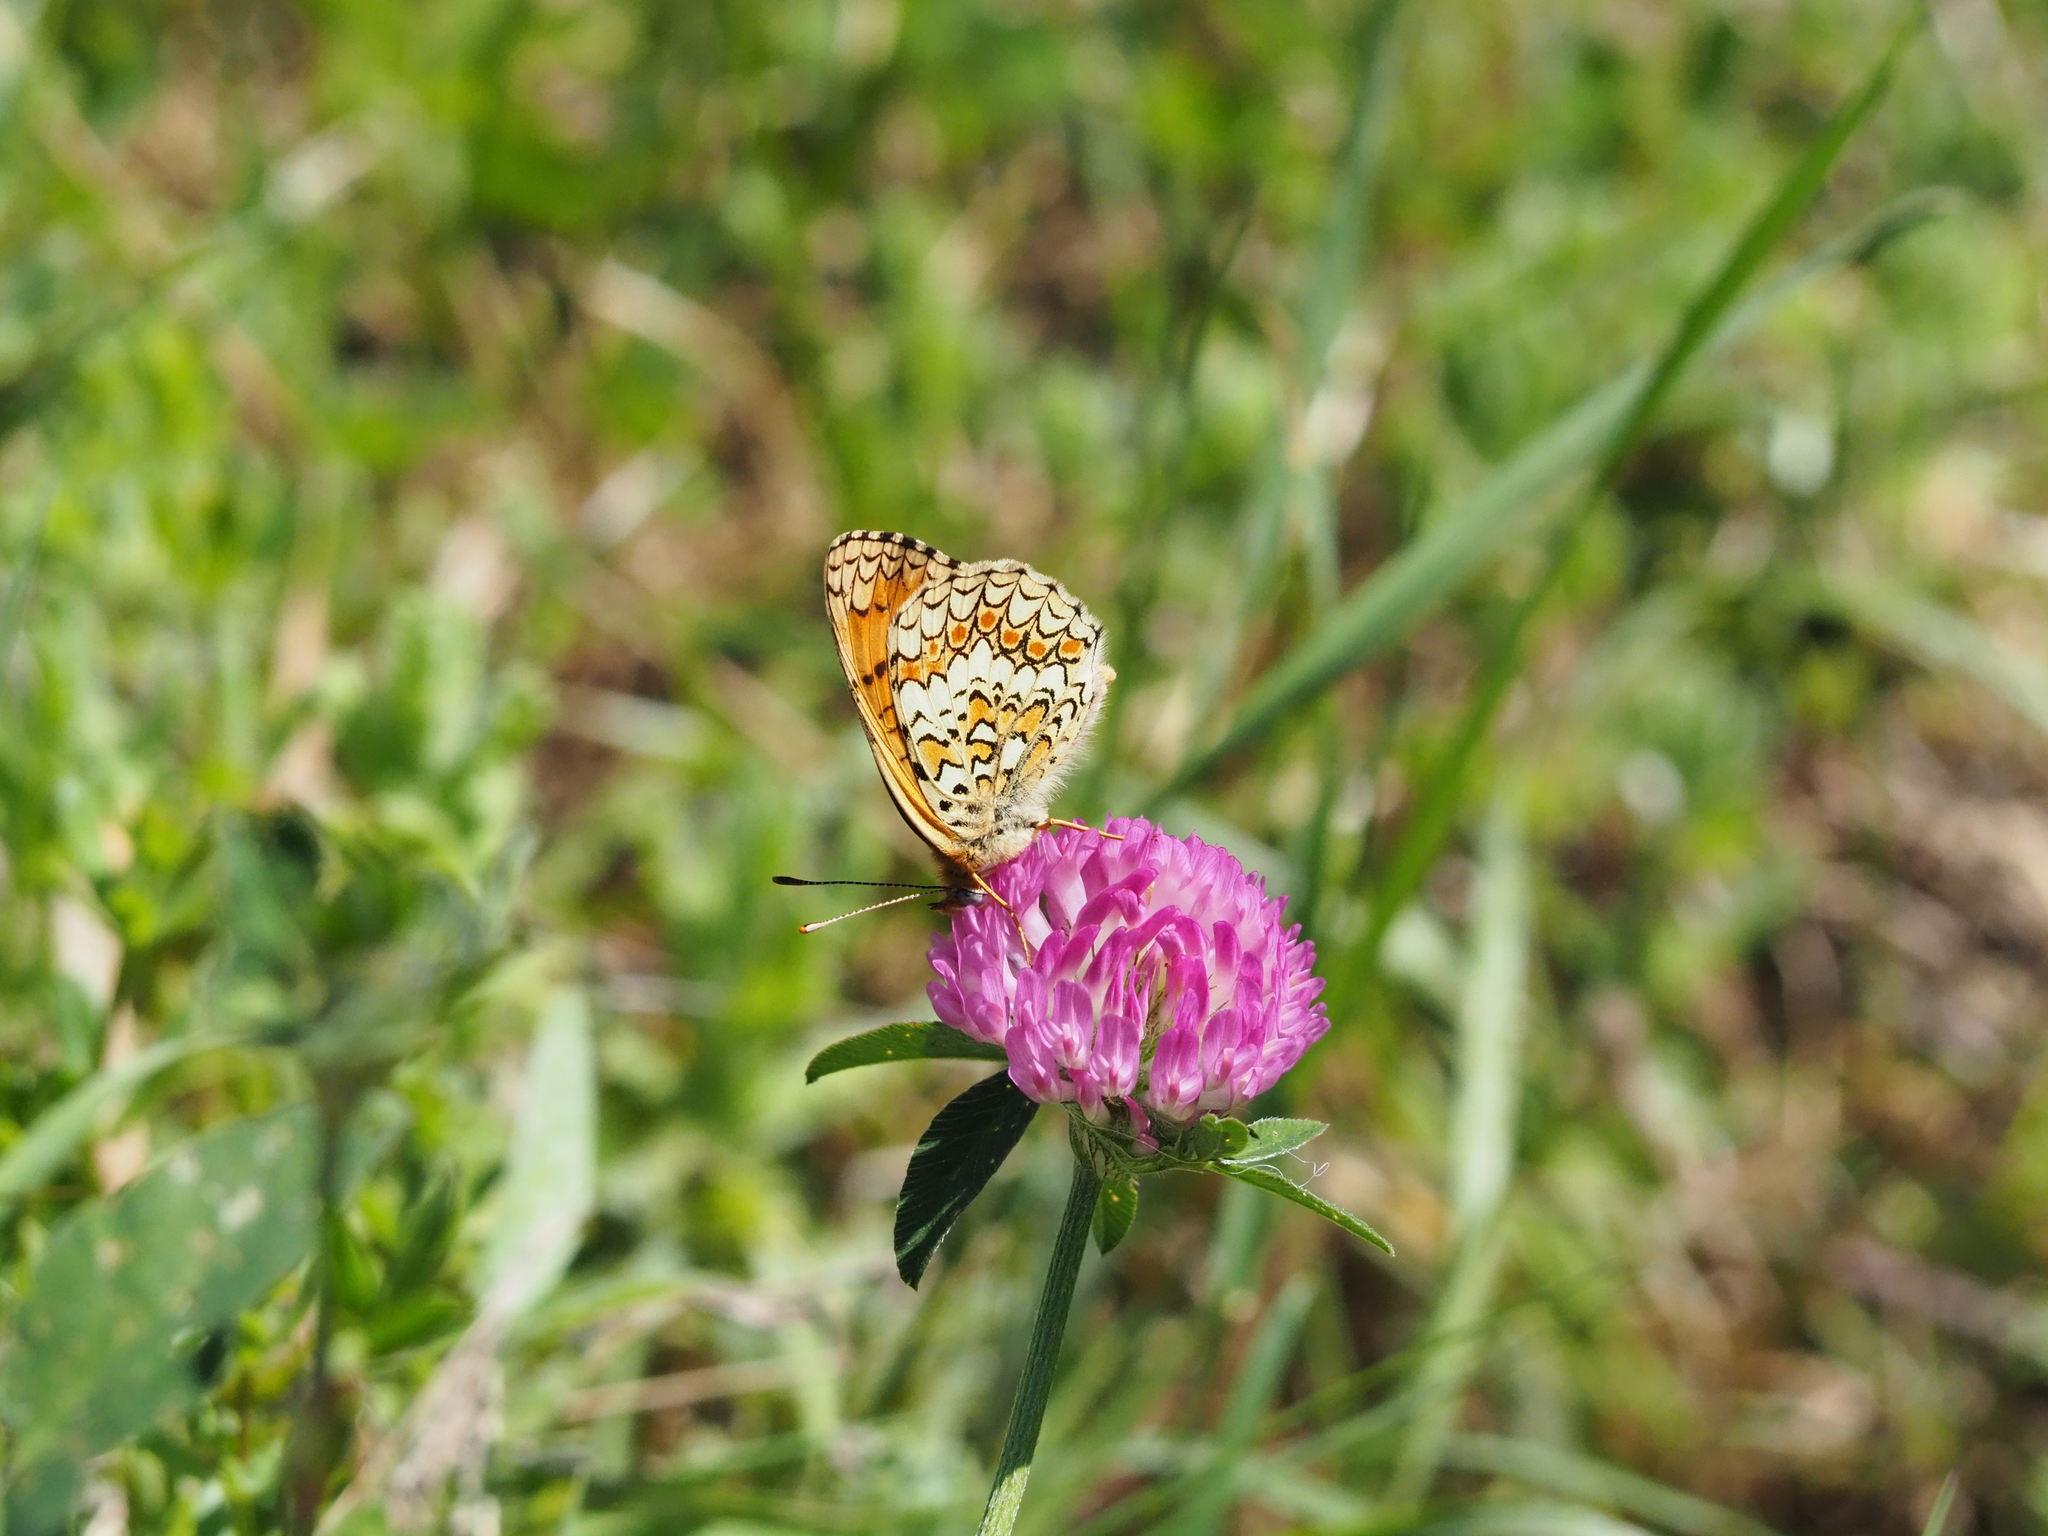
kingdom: Animalia
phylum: Arthropoda
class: Insecta
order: Lepidoptera
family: Nymphalidae
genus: Melitaea
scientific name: Melitaea phoebe
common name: Knapweed fritillary
